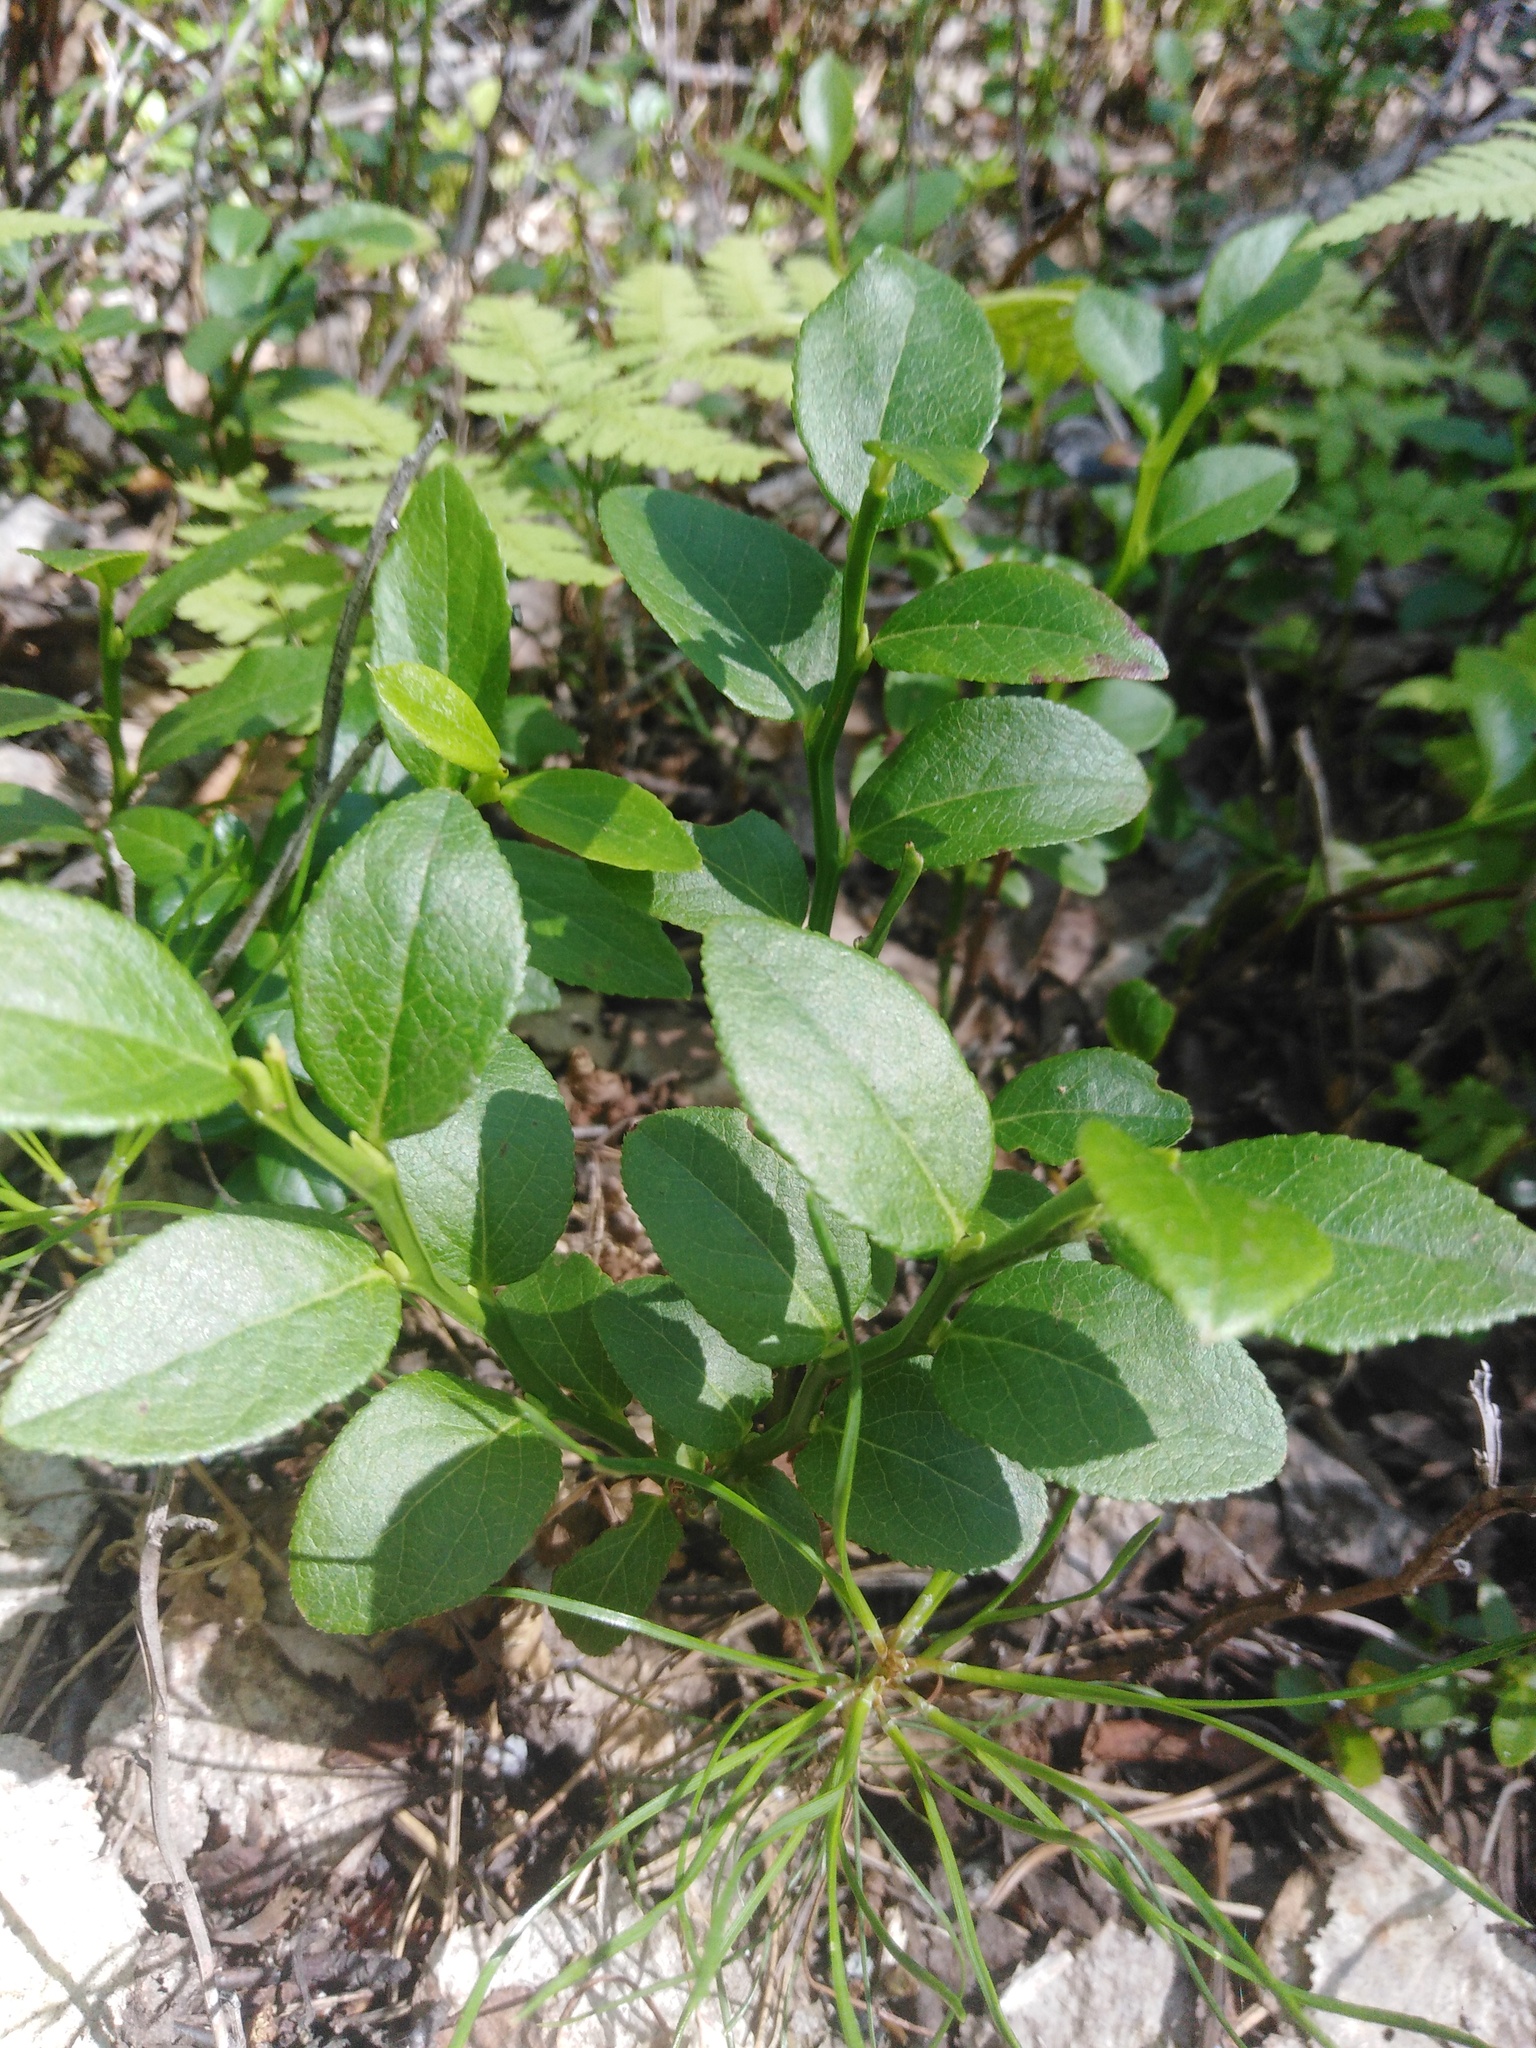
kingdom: Plantae
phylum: Tracheophyta
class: Magnoliopsida
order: Ericales
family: Ericaceae
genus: Vaccinium
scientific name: Vaccinium myrtillus
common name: Bilberry
